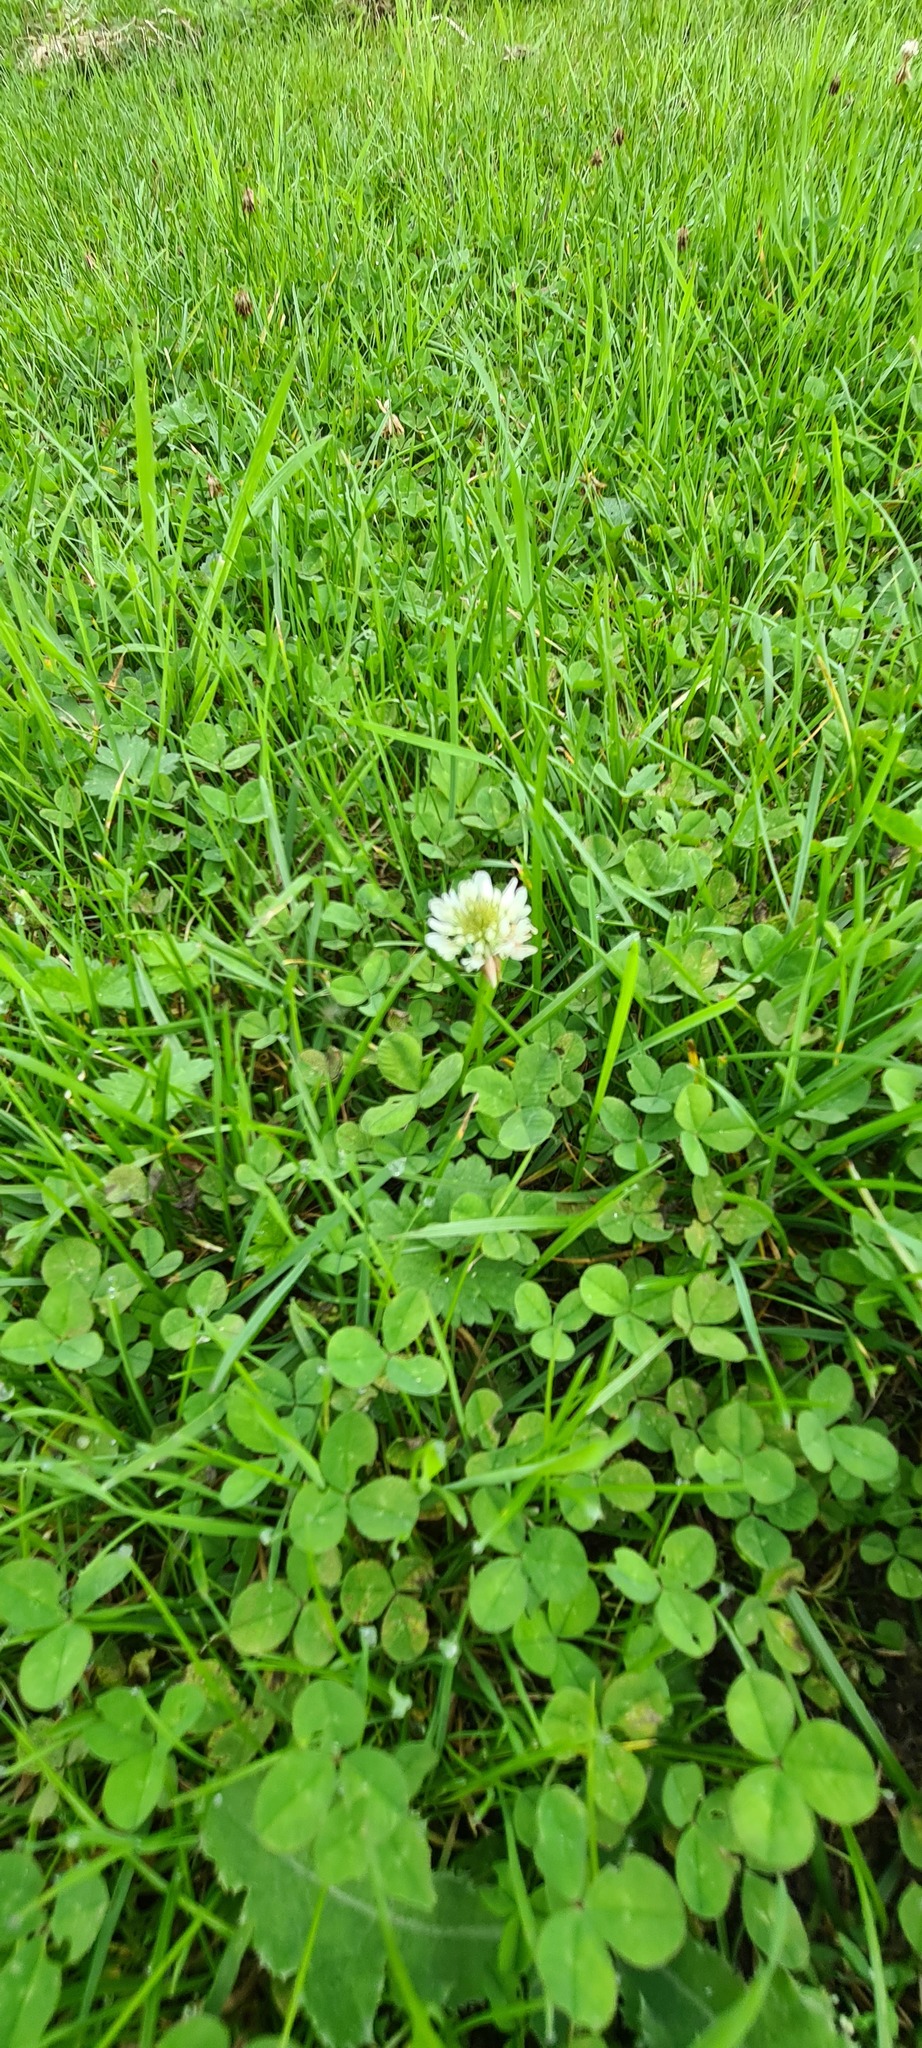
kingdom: Plantae
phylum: Tracheophyta
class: Magnoliopsida
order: Fabales
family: Fabaceae
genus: Trifolium
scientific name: Trifolium repens
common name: White clover
